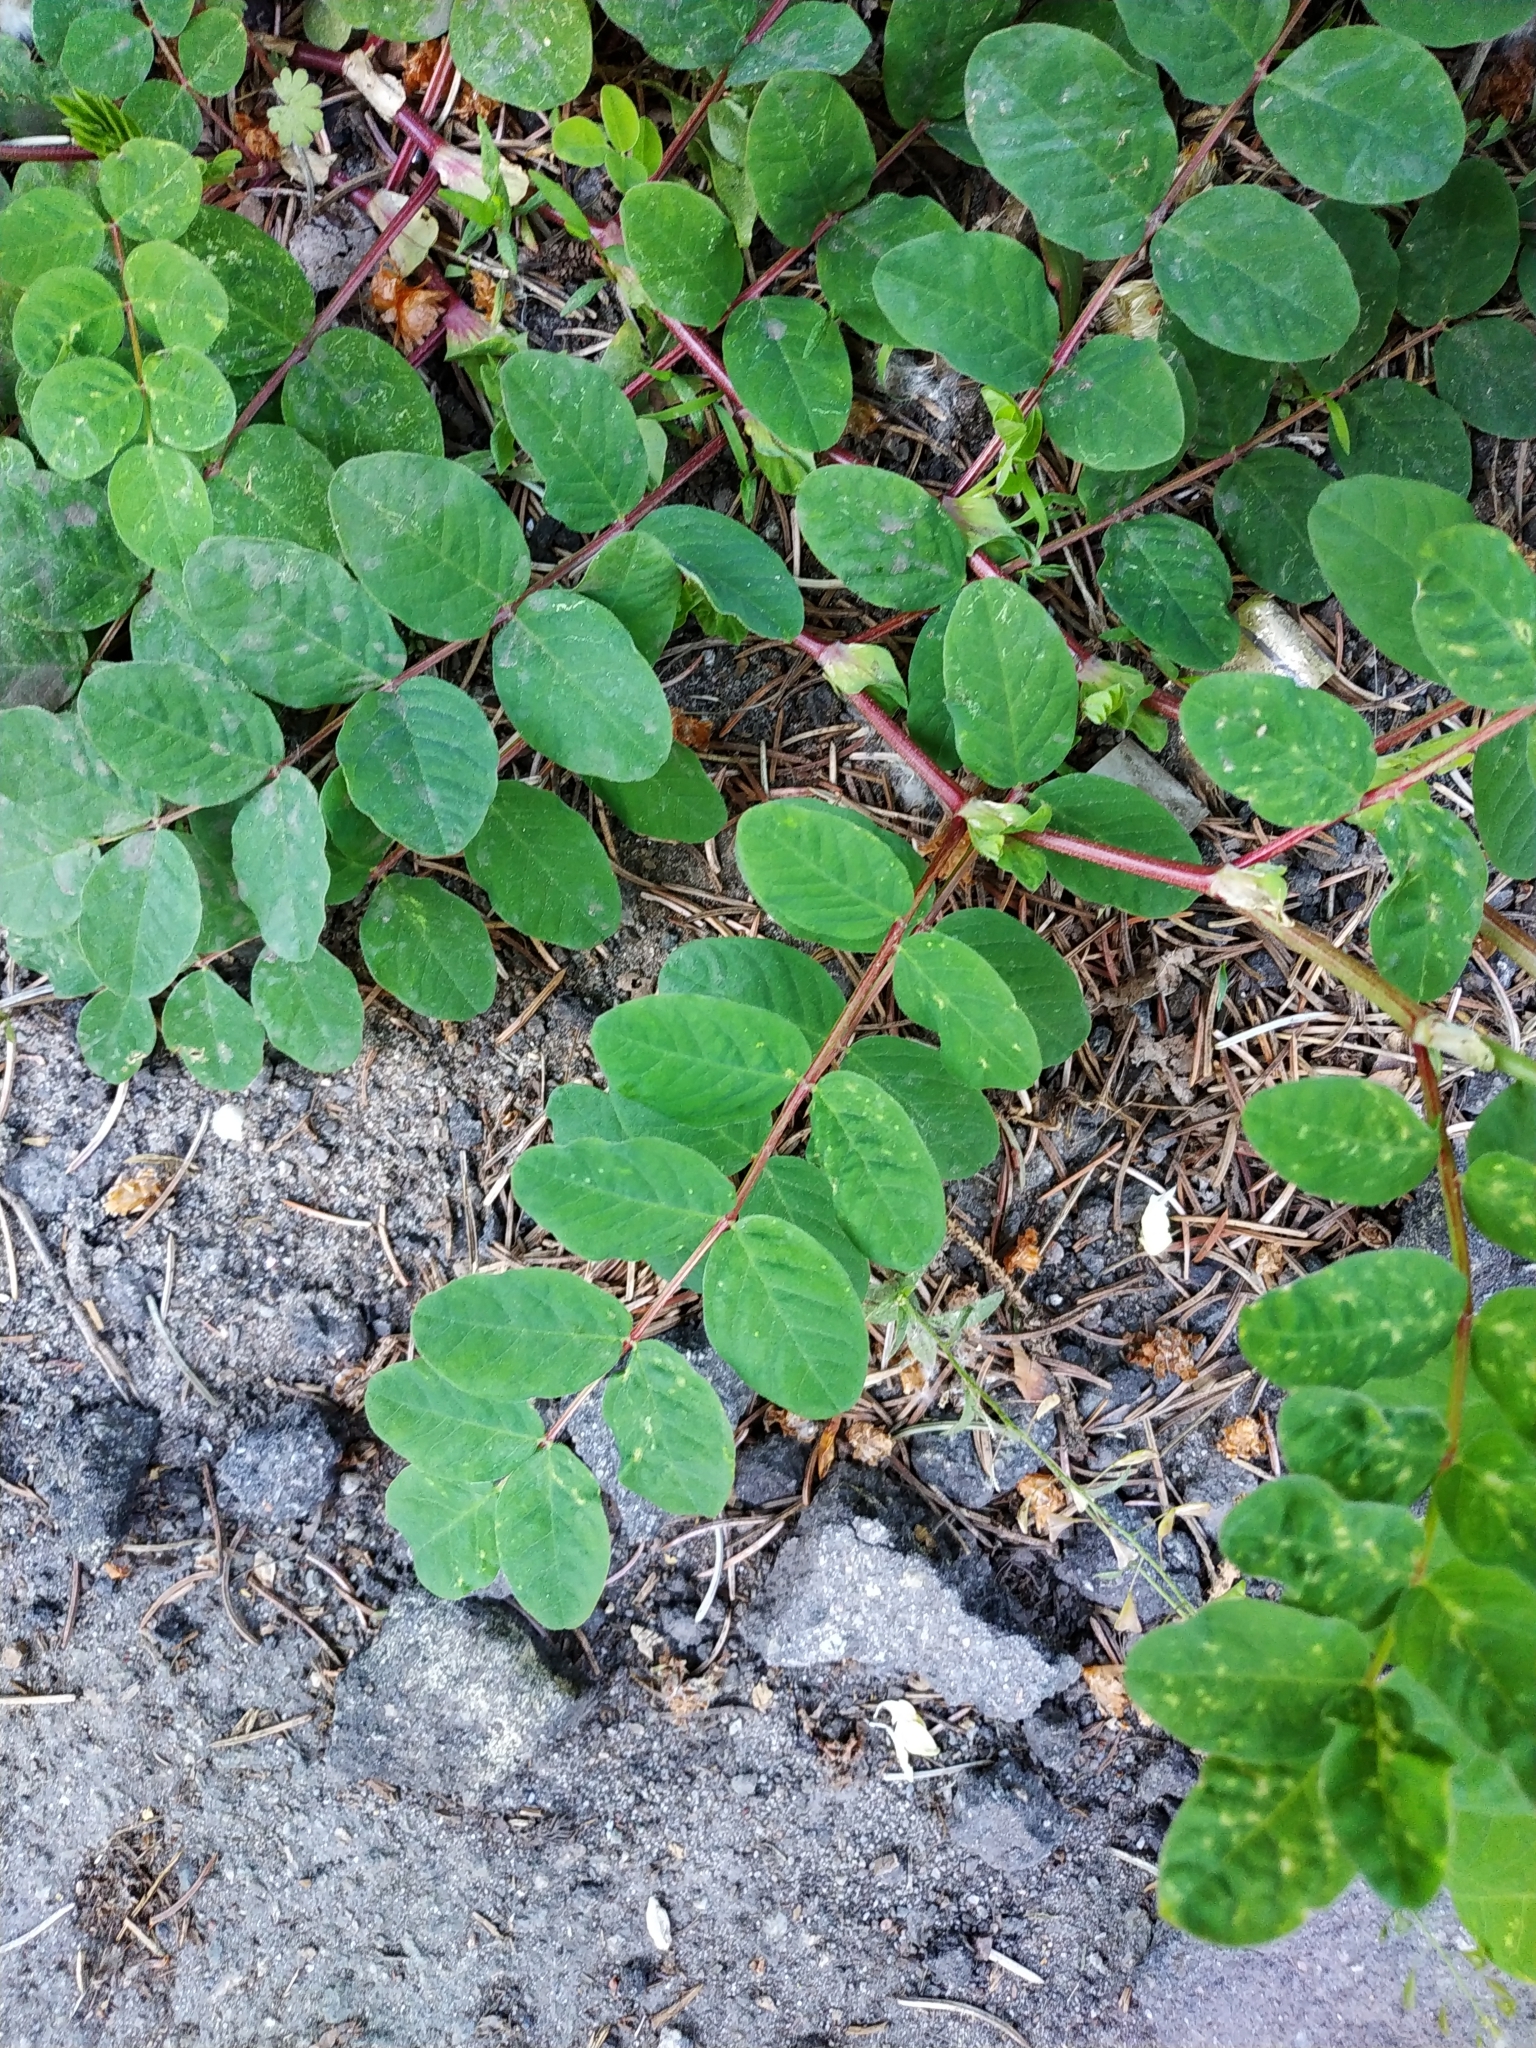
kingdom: Plantae
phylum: Tracheophyta
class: Magnoliopsida
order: Fabales
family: Fabaceae
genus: Astragalus
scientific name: Astragalus glycyphyllos
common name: Wild liquorice
